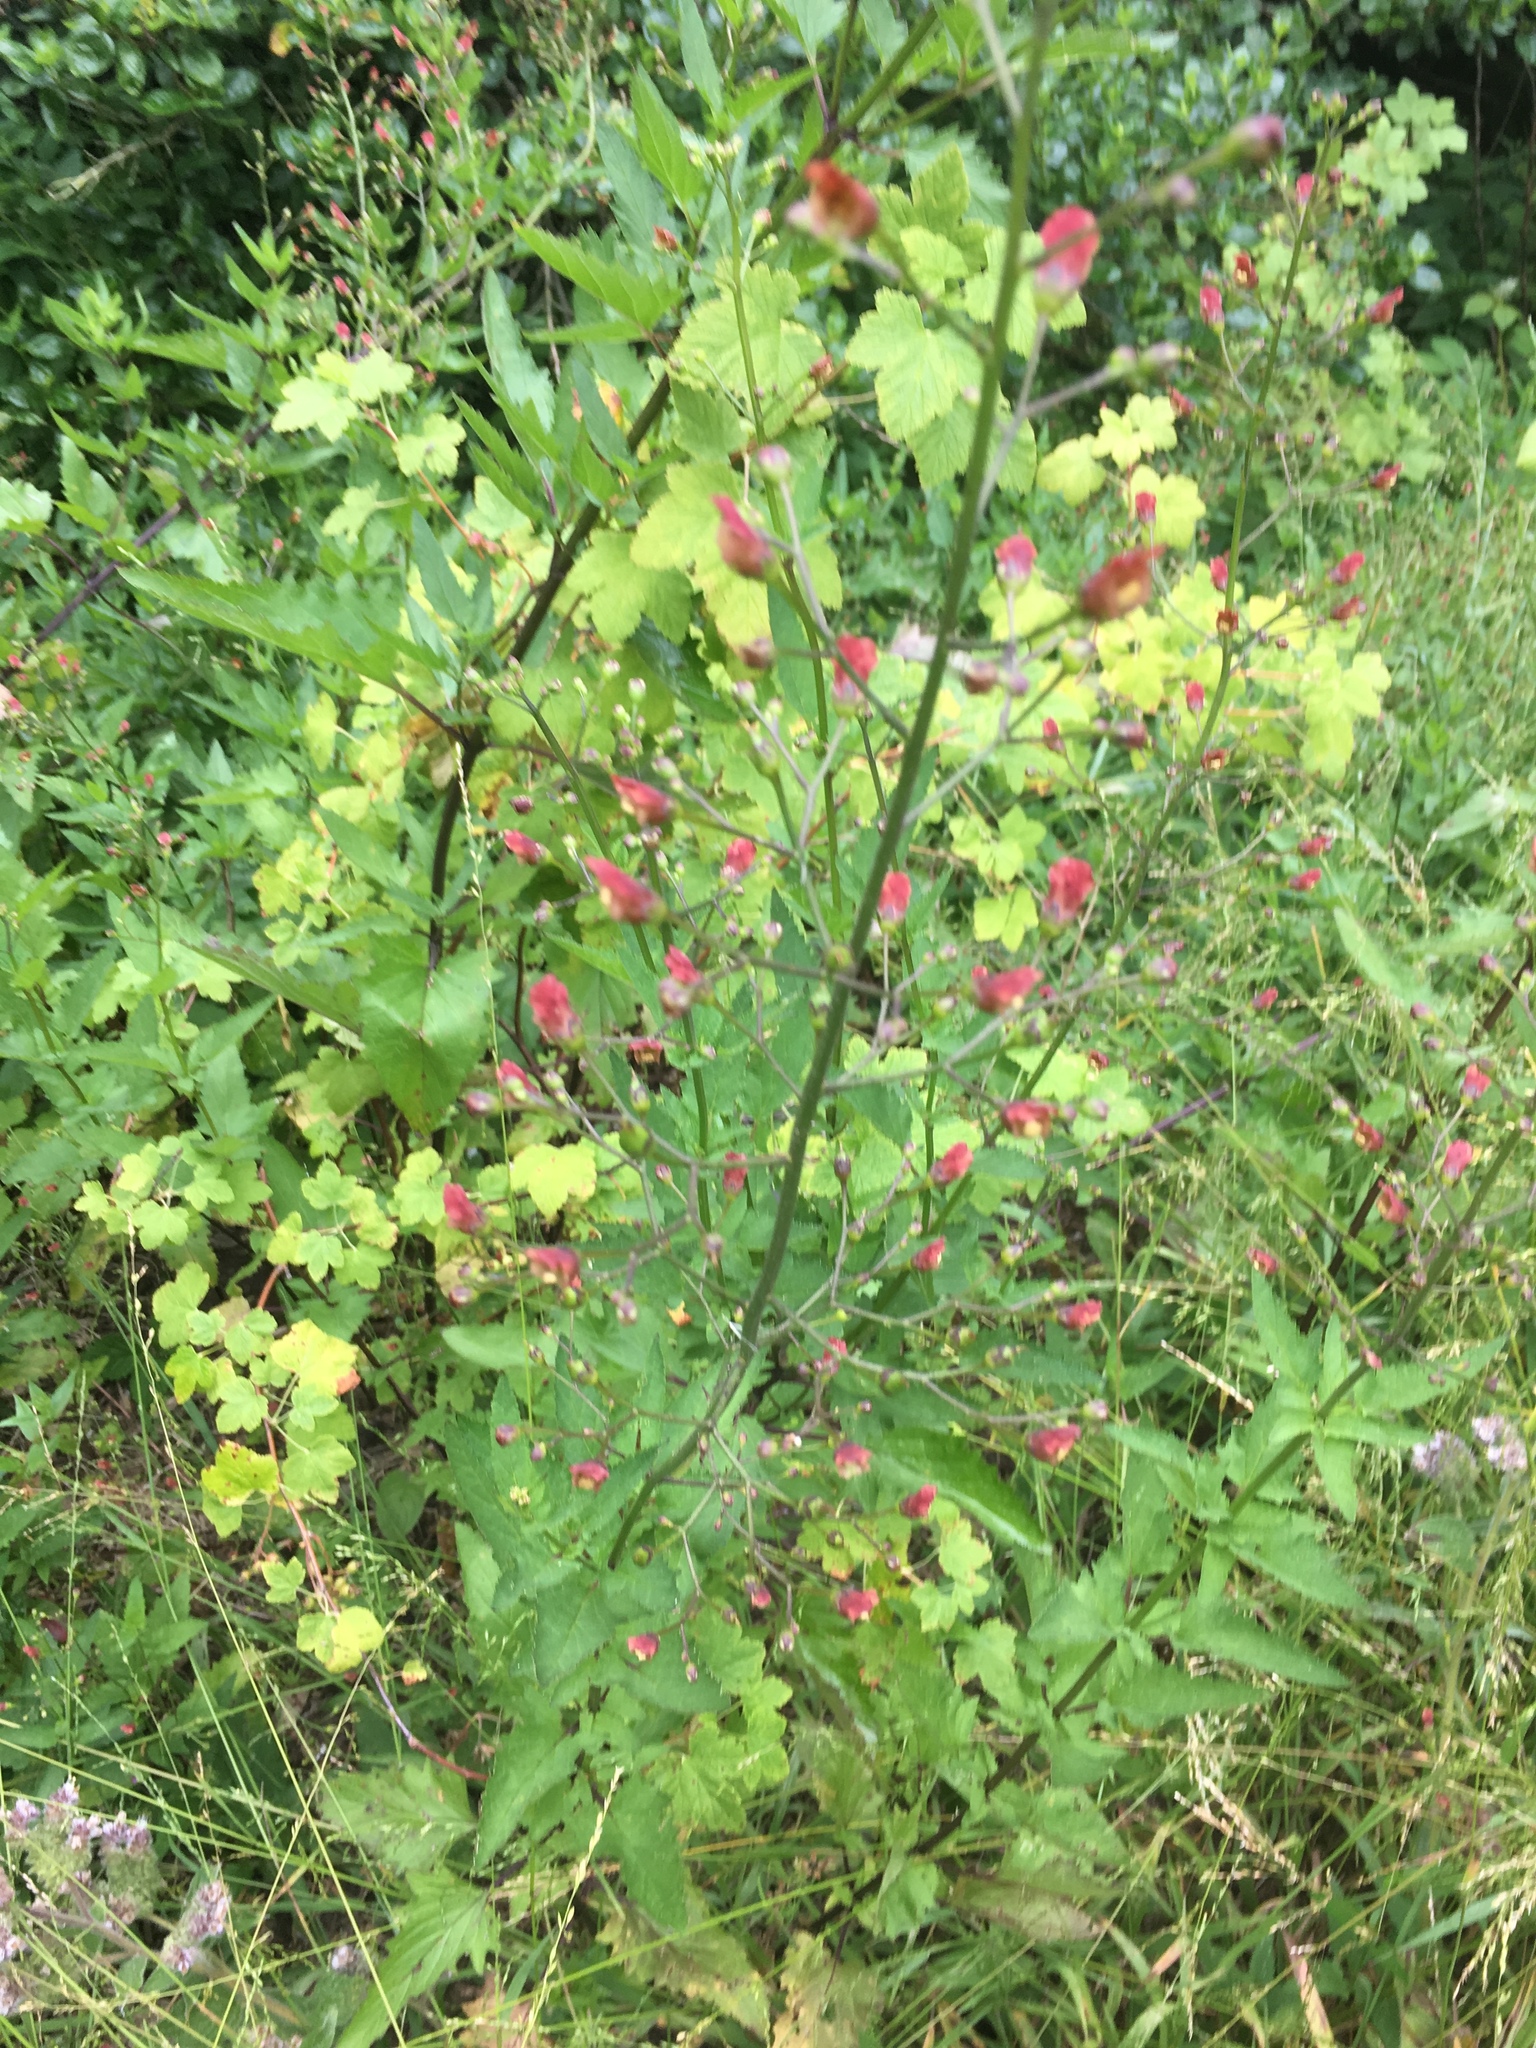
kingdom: Plantae
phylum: Tracheophyta
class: Magnoliopsida
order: Lamiales
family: Scrophulariaceae
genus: Scrophularia
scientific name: Scrophularia californica
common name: California figwort
